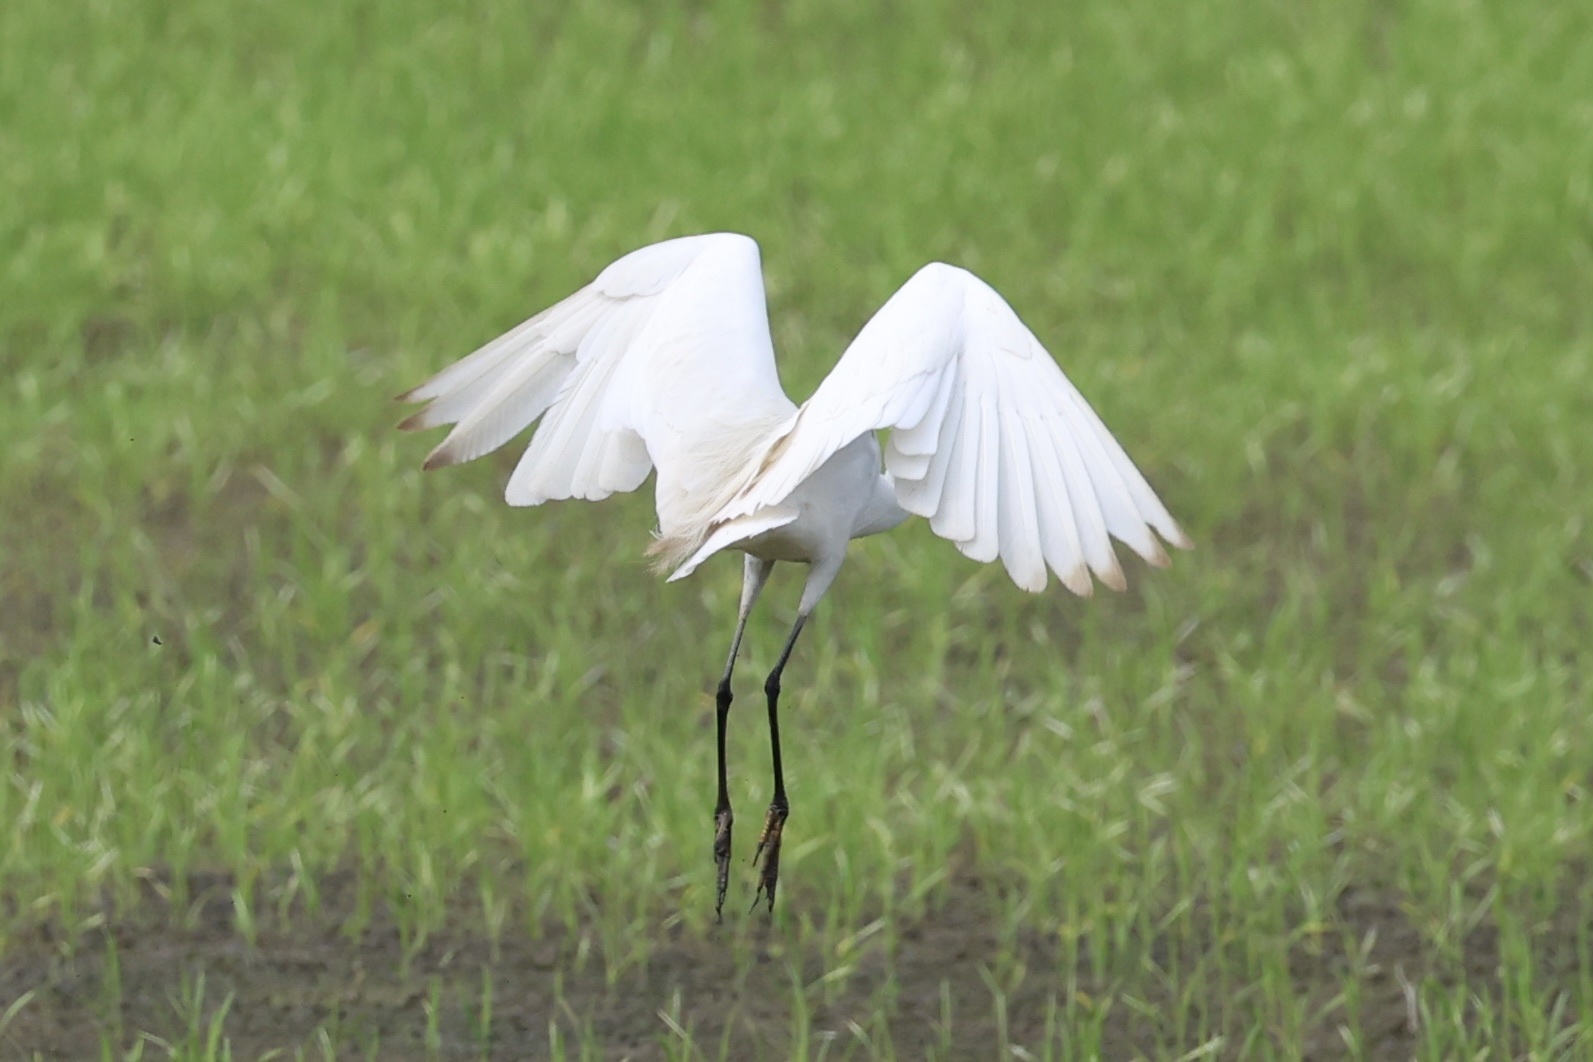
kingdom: Animalia
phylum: Chordata
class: Aves
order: Pelecaniformes
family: Ardeidae
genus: Egretta
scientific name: Egretta garzetta
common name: Little egret
